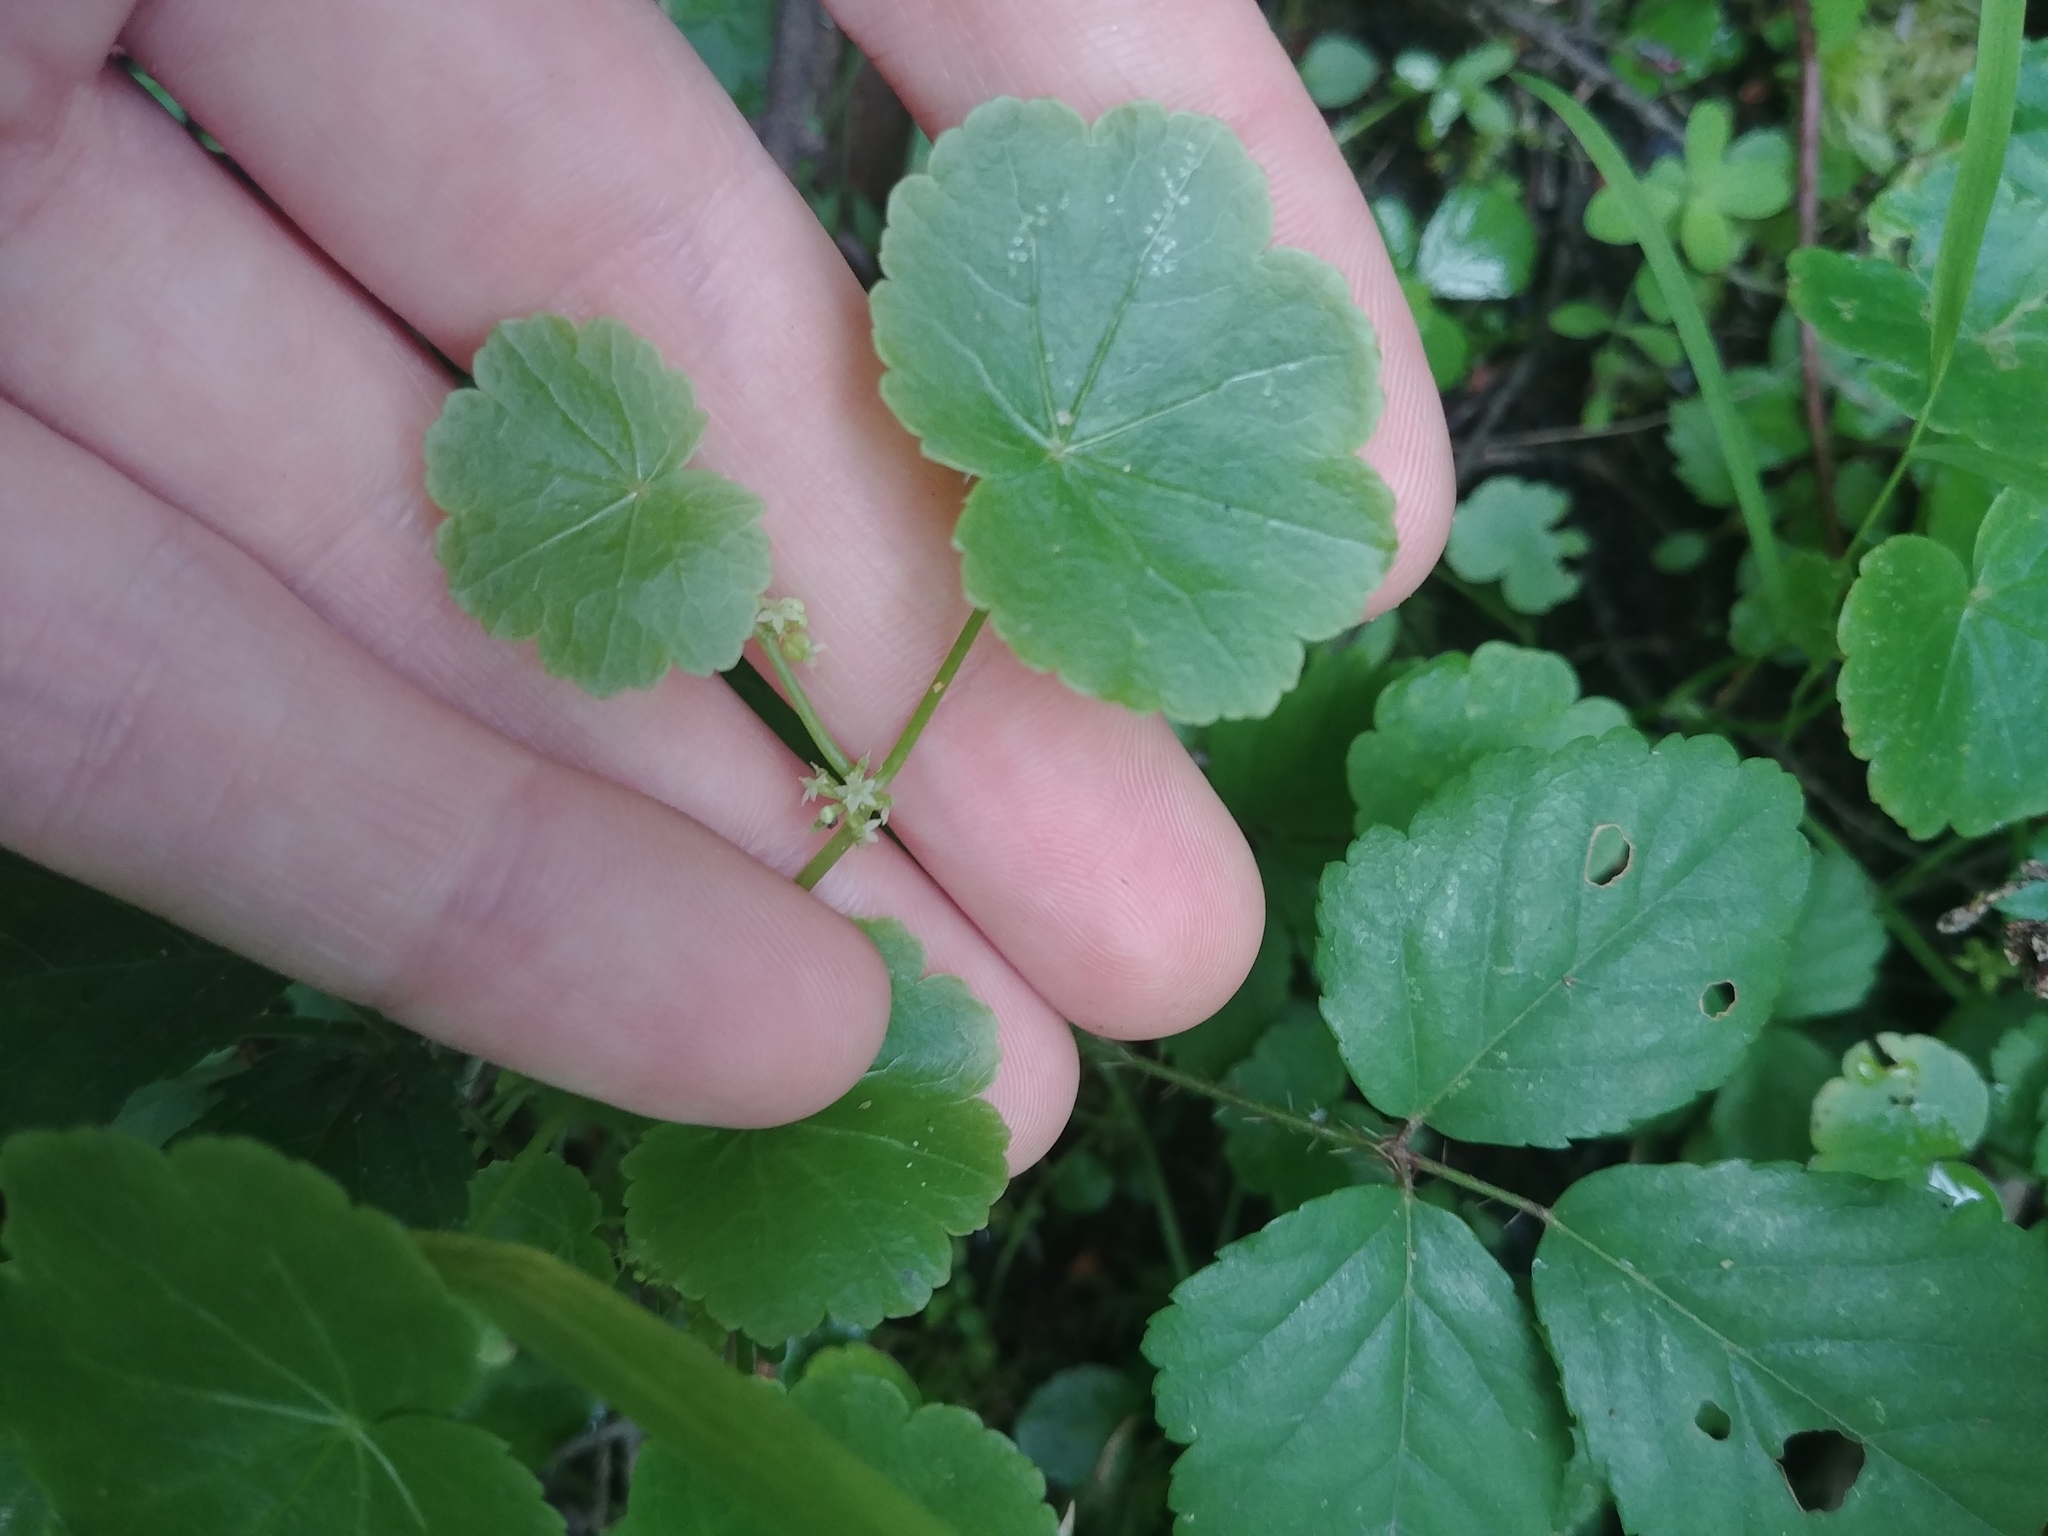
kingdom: Plantae
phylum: Tracheophyta
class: Magnoliopsida
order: Apiales
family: Araliaceae
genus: Hydrocotyle
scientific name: Hydrocotyle americana
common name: American water-pennywort
